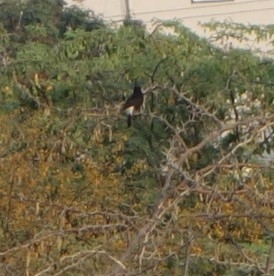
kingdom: Animalia
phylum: Chordata
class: Aves
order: Passeriformes
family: Pycnonotidae
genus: Pycnonotus
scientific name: Pycnonotus cafer
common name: Red-vented bulbul
